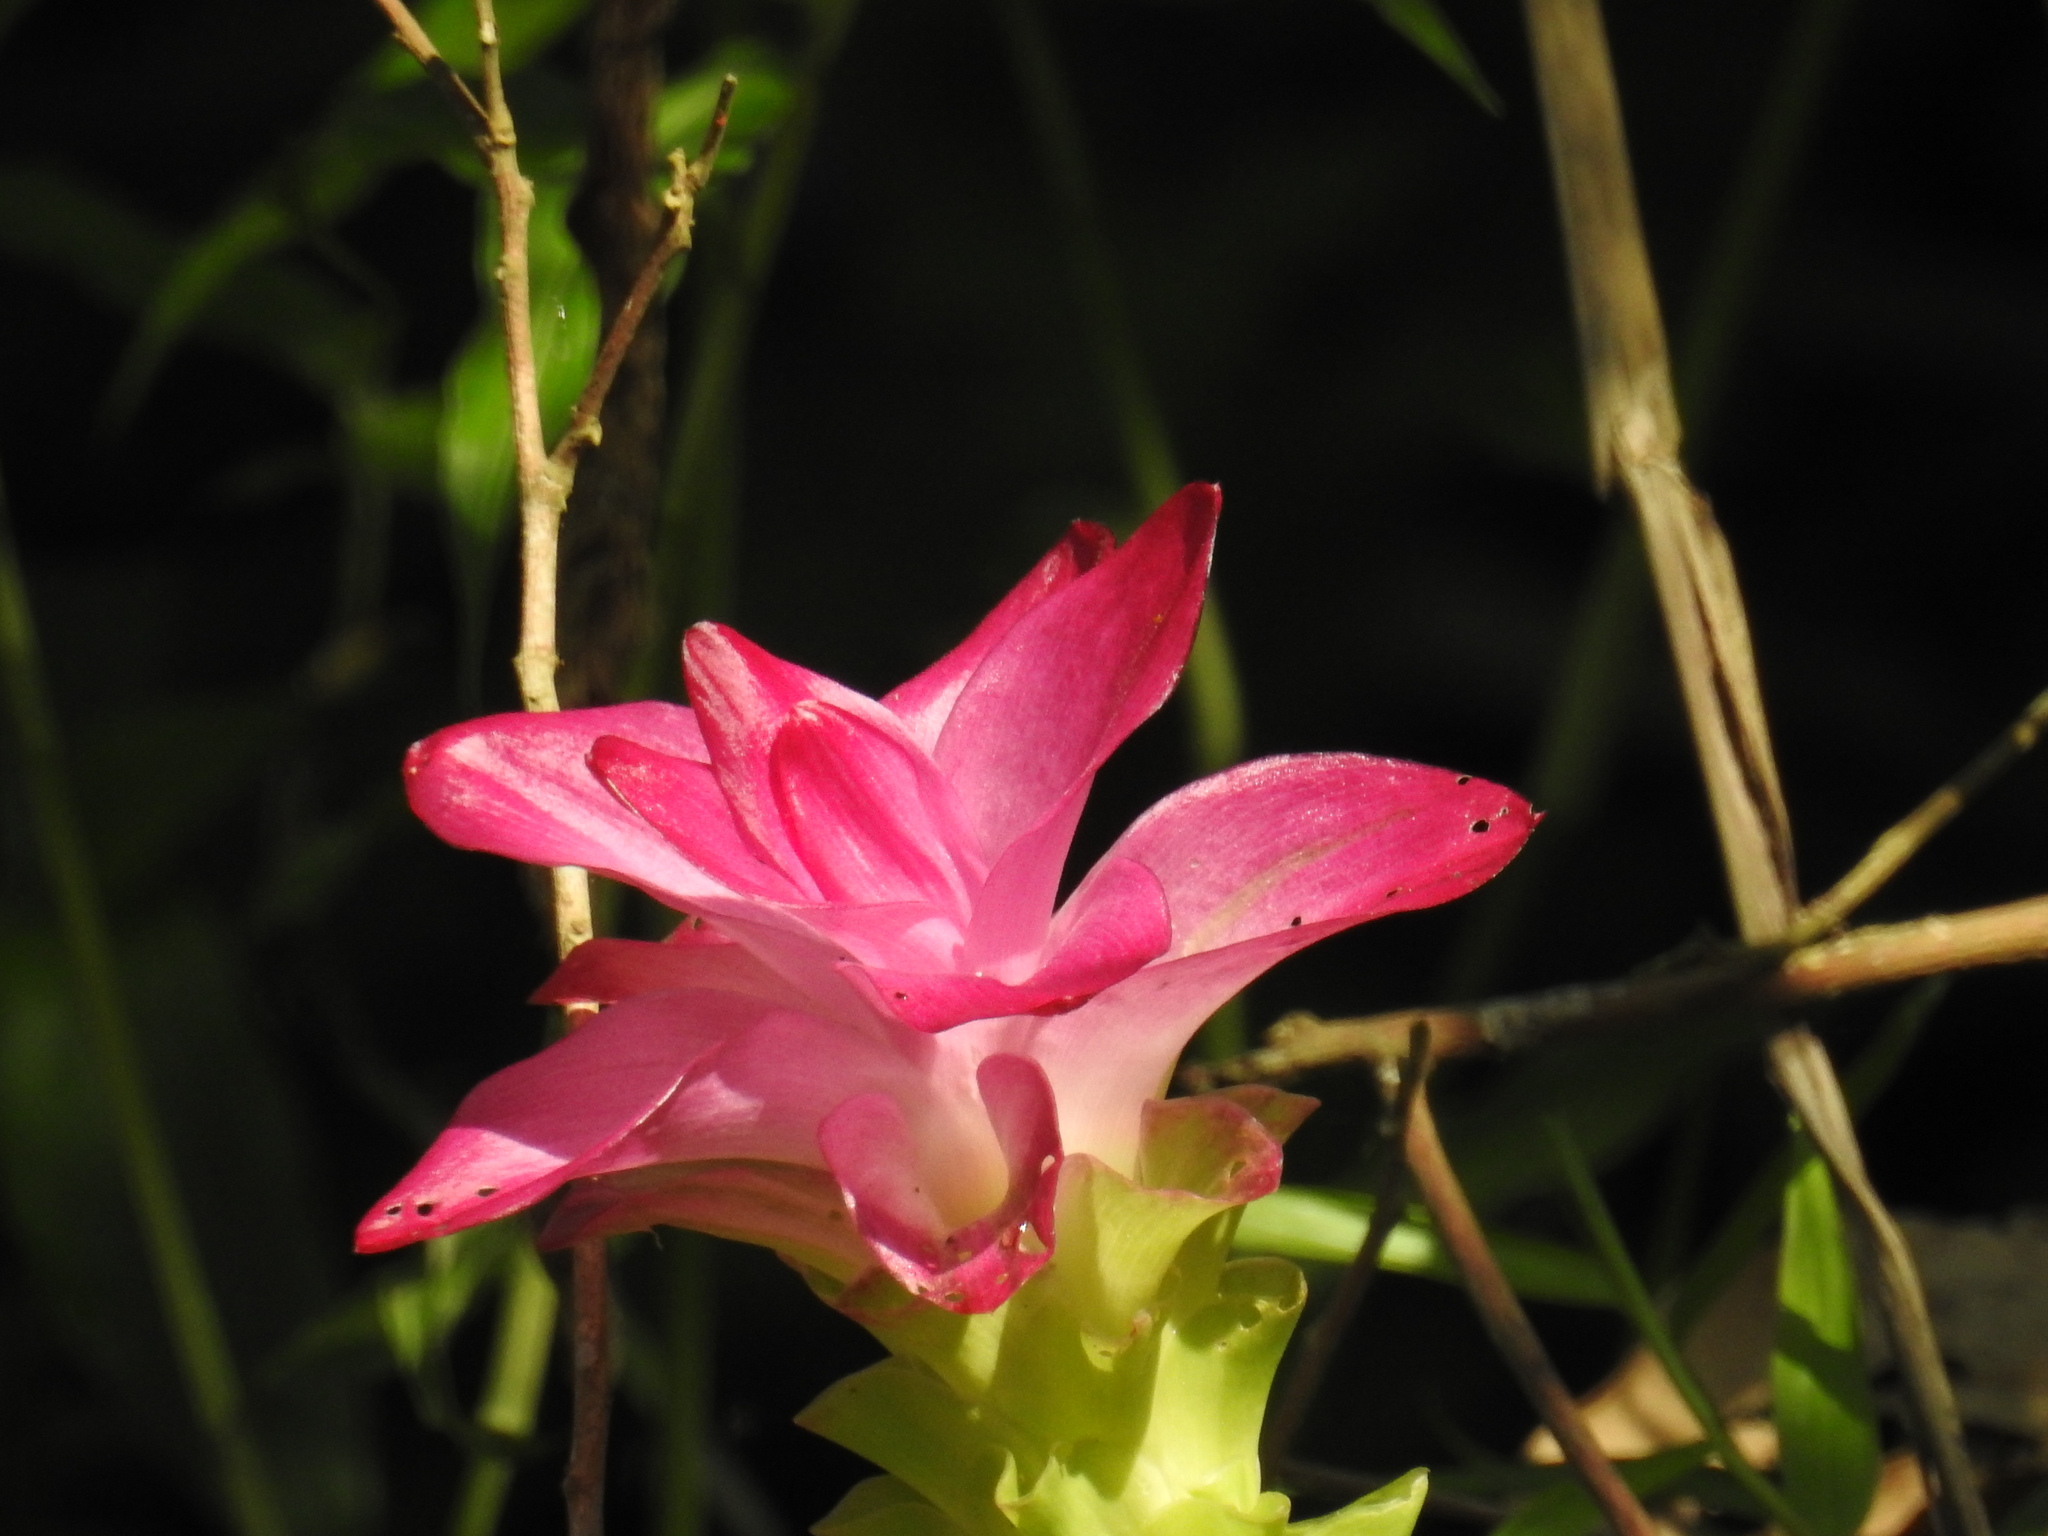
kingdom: Plantae
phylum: Tracheophyta
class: Liliopsida
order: Zingiberales
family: Zingiberaceae
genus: Curcuma
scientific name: Curcuma aromatica
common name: Wild turmeric
